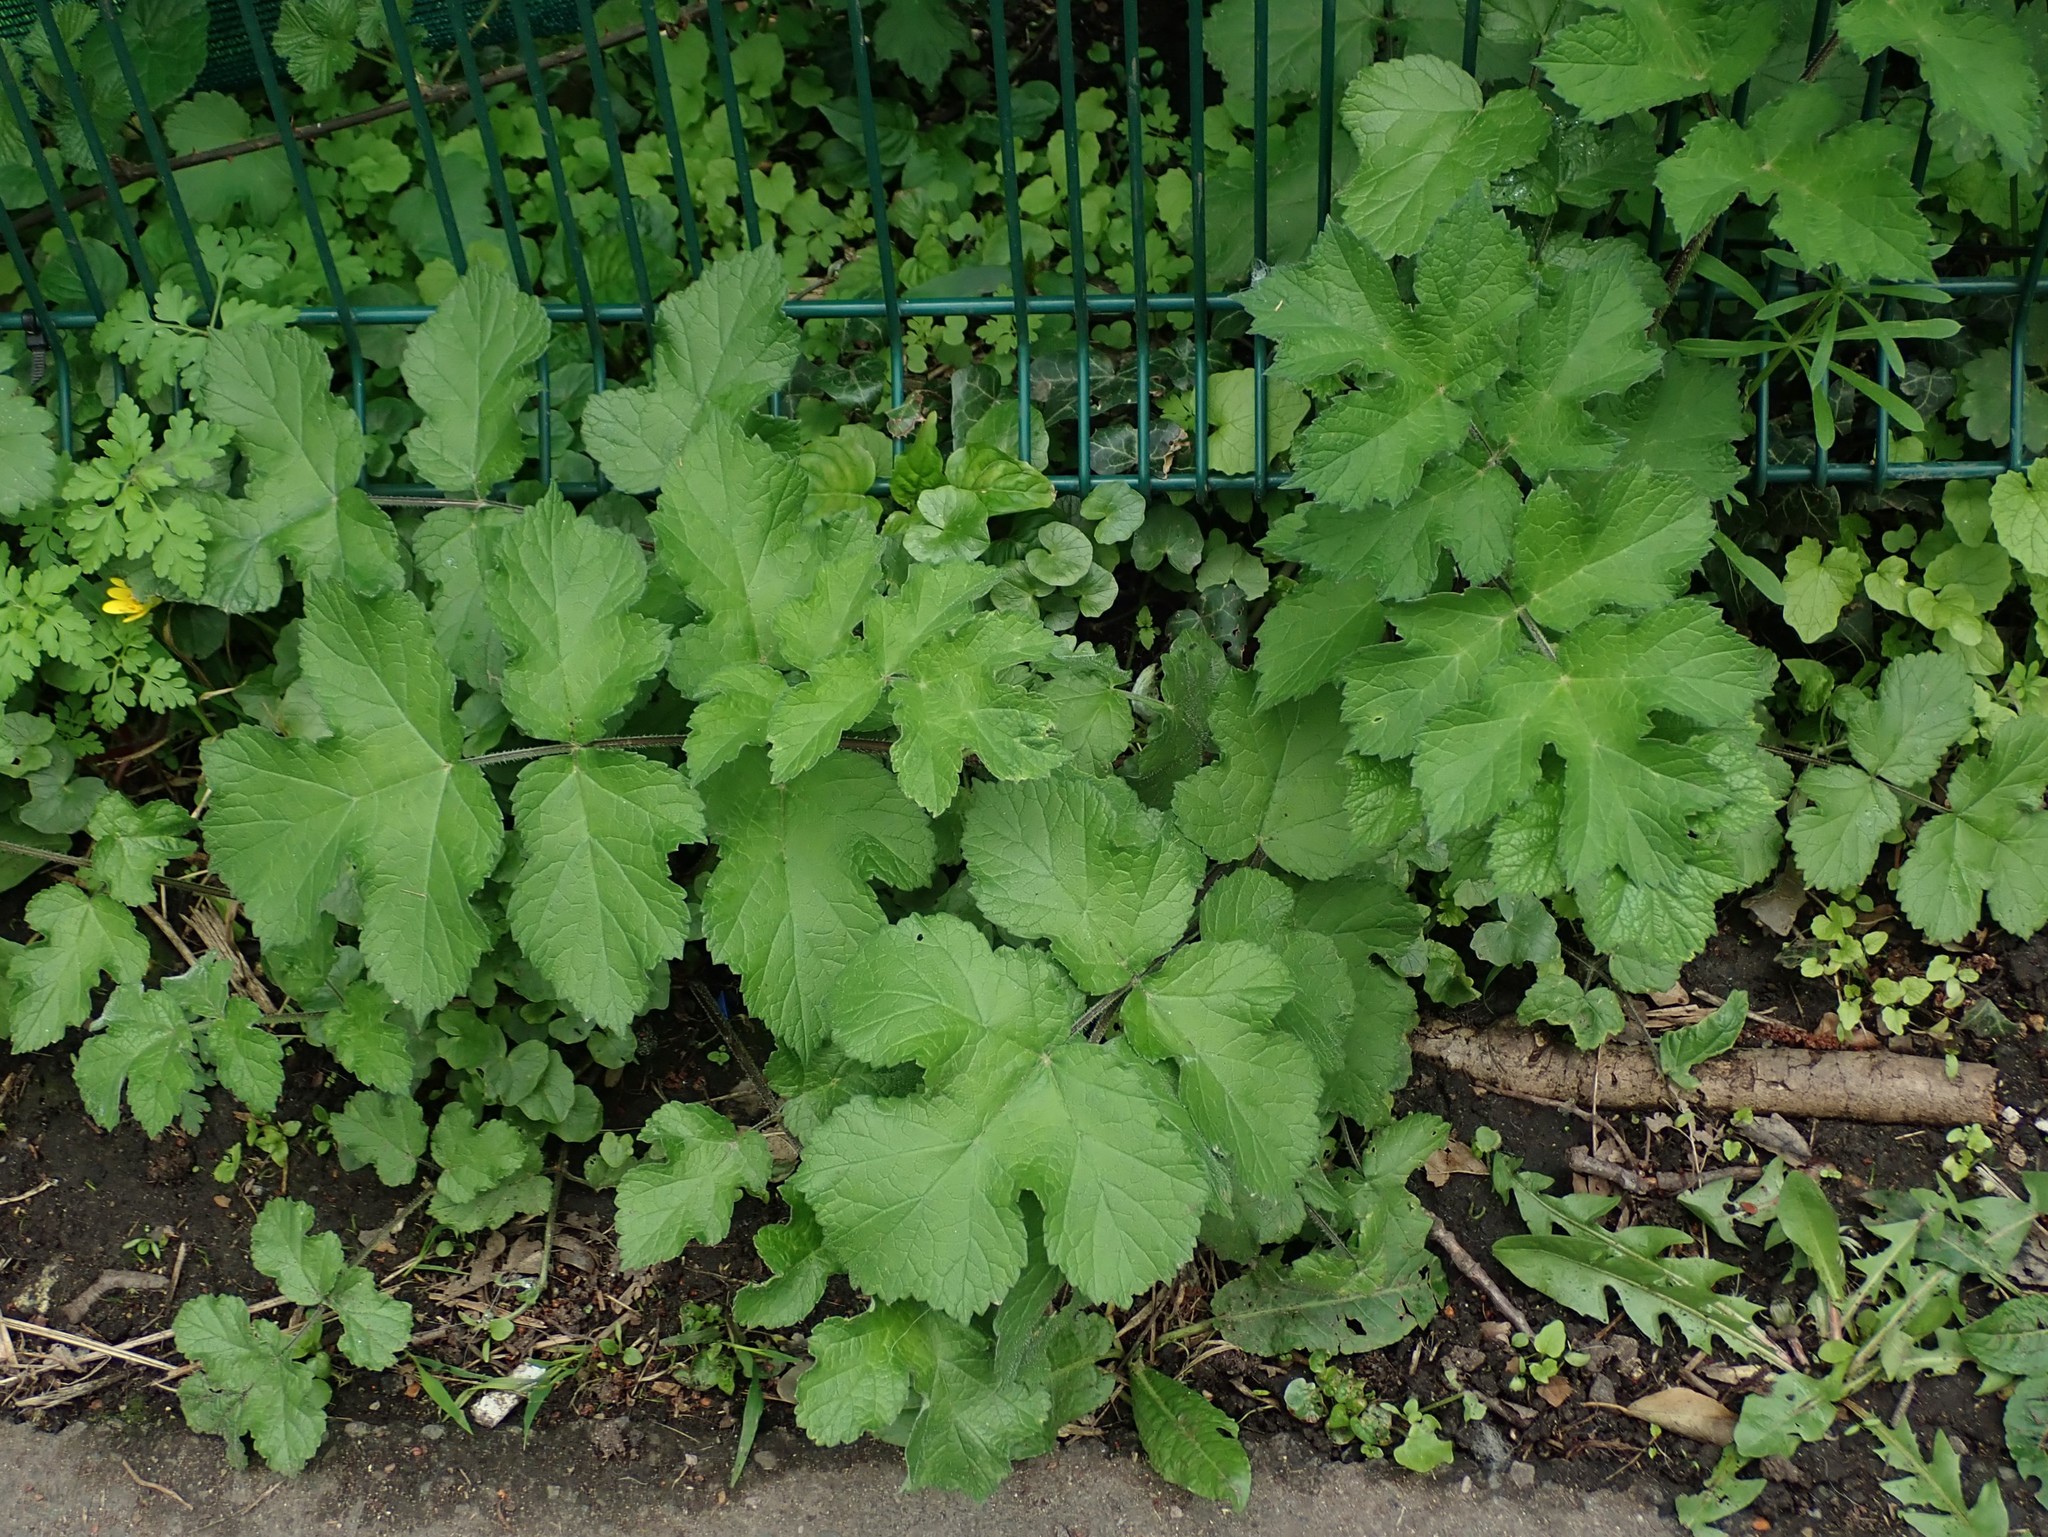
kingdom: Plantae
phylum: Tracheophyta
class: Magnoliopsida
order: Apiales
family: Apiaceae
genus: Heracleum
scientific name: Heracleum sphondylium
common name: Hogweed
